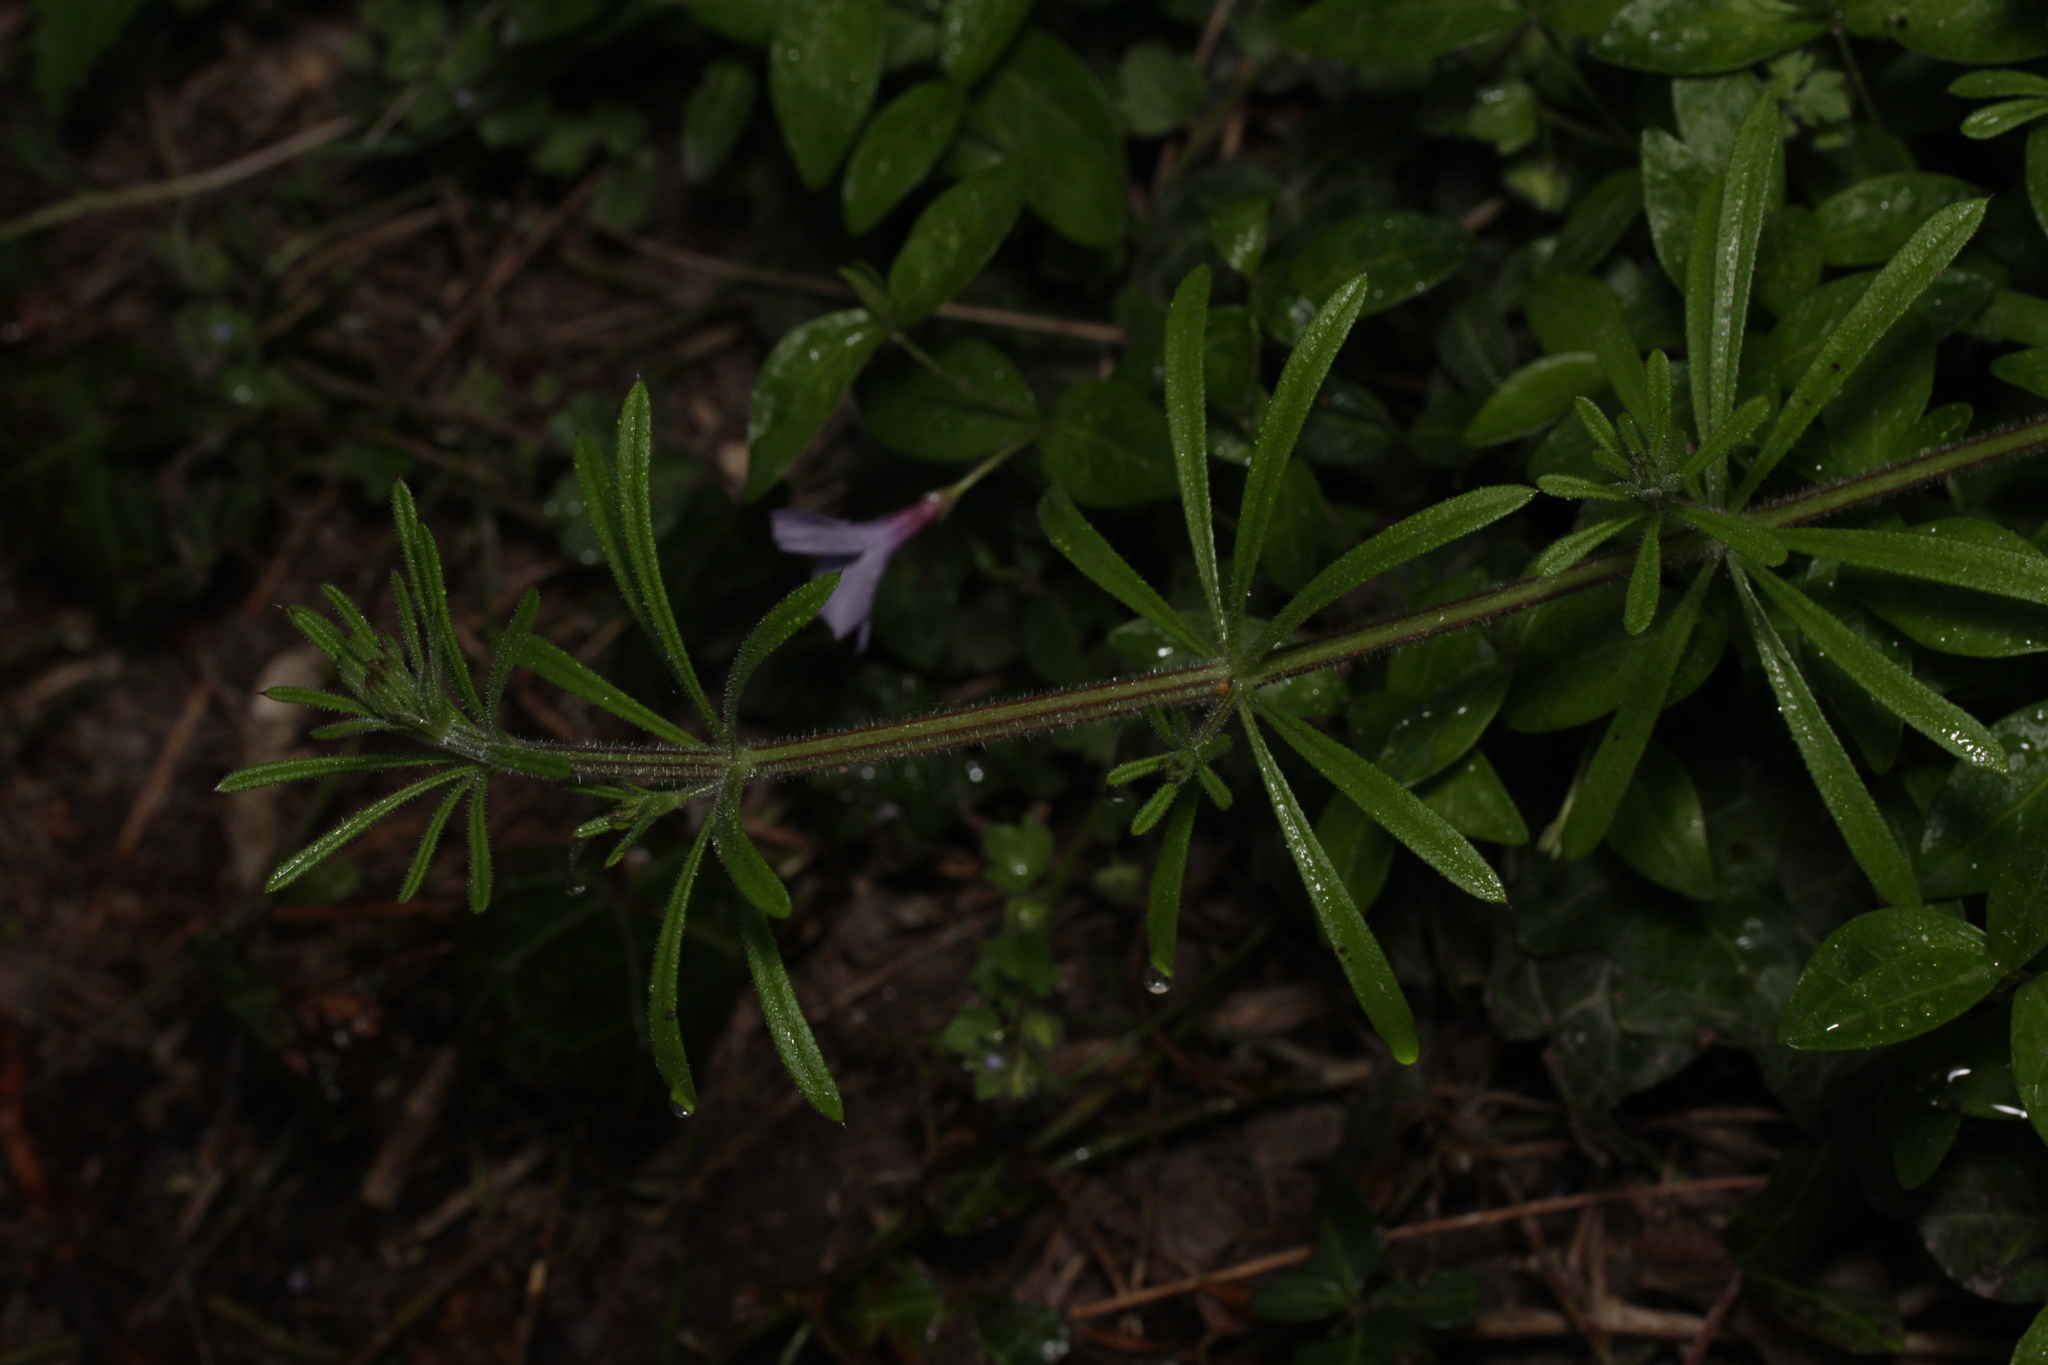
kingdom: Plantae
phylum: Tracheophyta
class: Magnoliopsida
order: Gentianales
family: Rubiaceae
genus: Galium
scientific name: Galium aparine
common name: Cleavers
